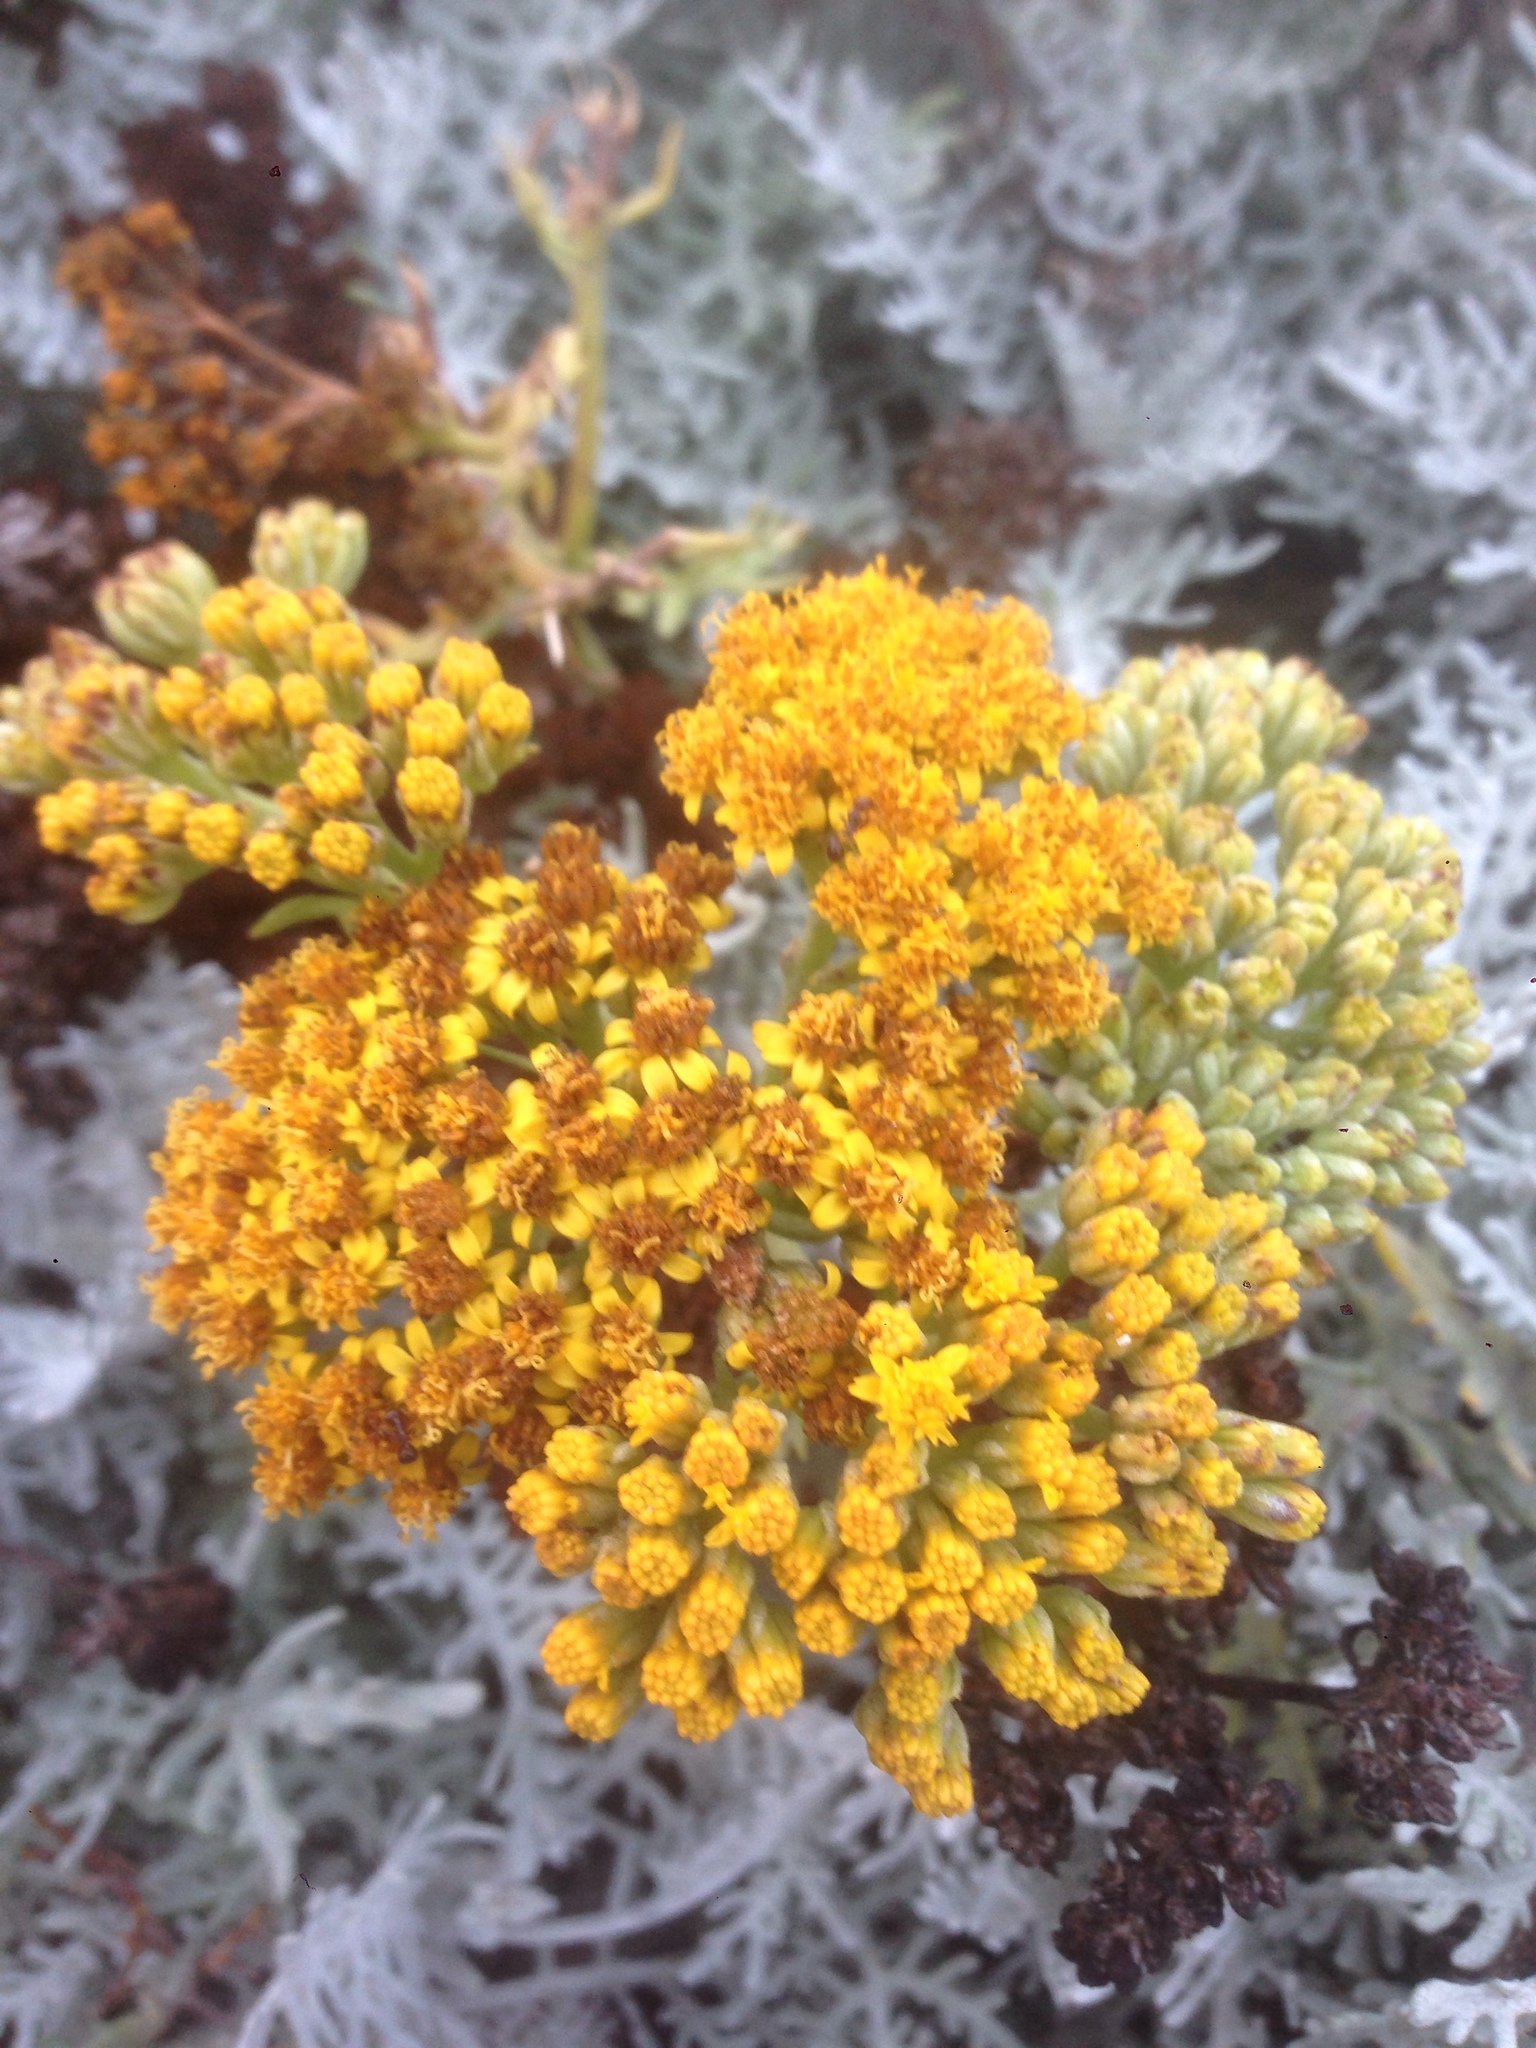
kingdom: Plantae
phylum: Tracheophyta
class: Magnoliopsida
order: Asterales
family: Asteraceae
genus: Constancea
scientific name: Constancea nevinii
